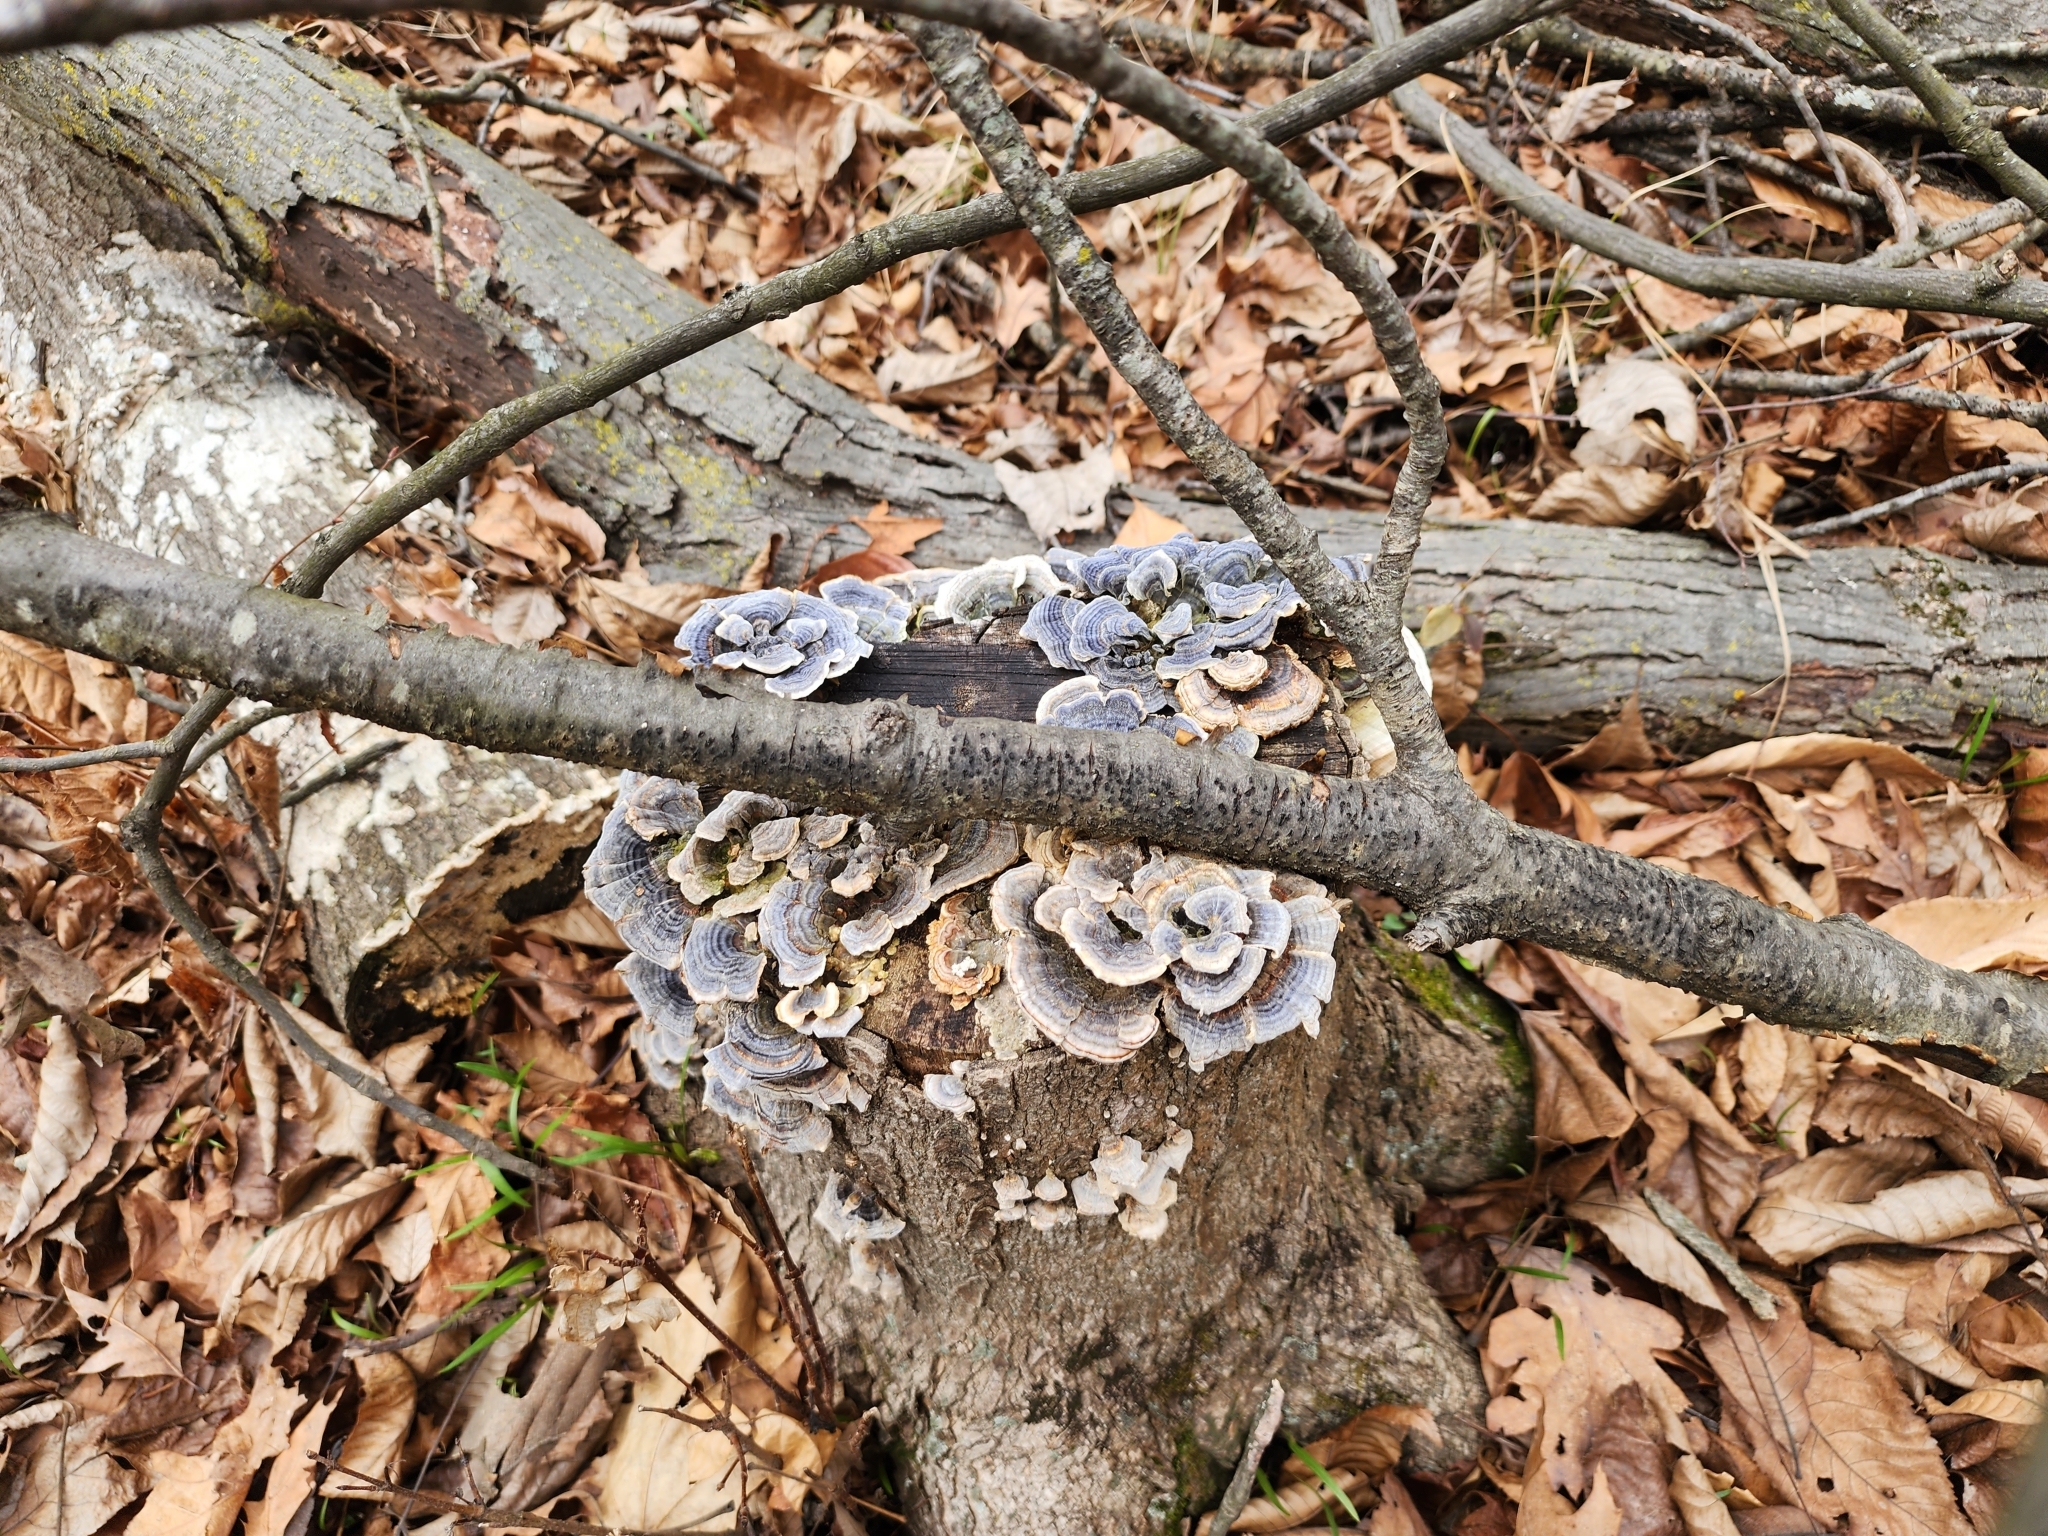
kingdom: Fungi
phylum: Basidiomycota
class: Agaricomycetes
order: Polyporales
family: Polyporaceae
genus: Trametes
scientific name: Trametes versicolor
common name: Turkeytail
